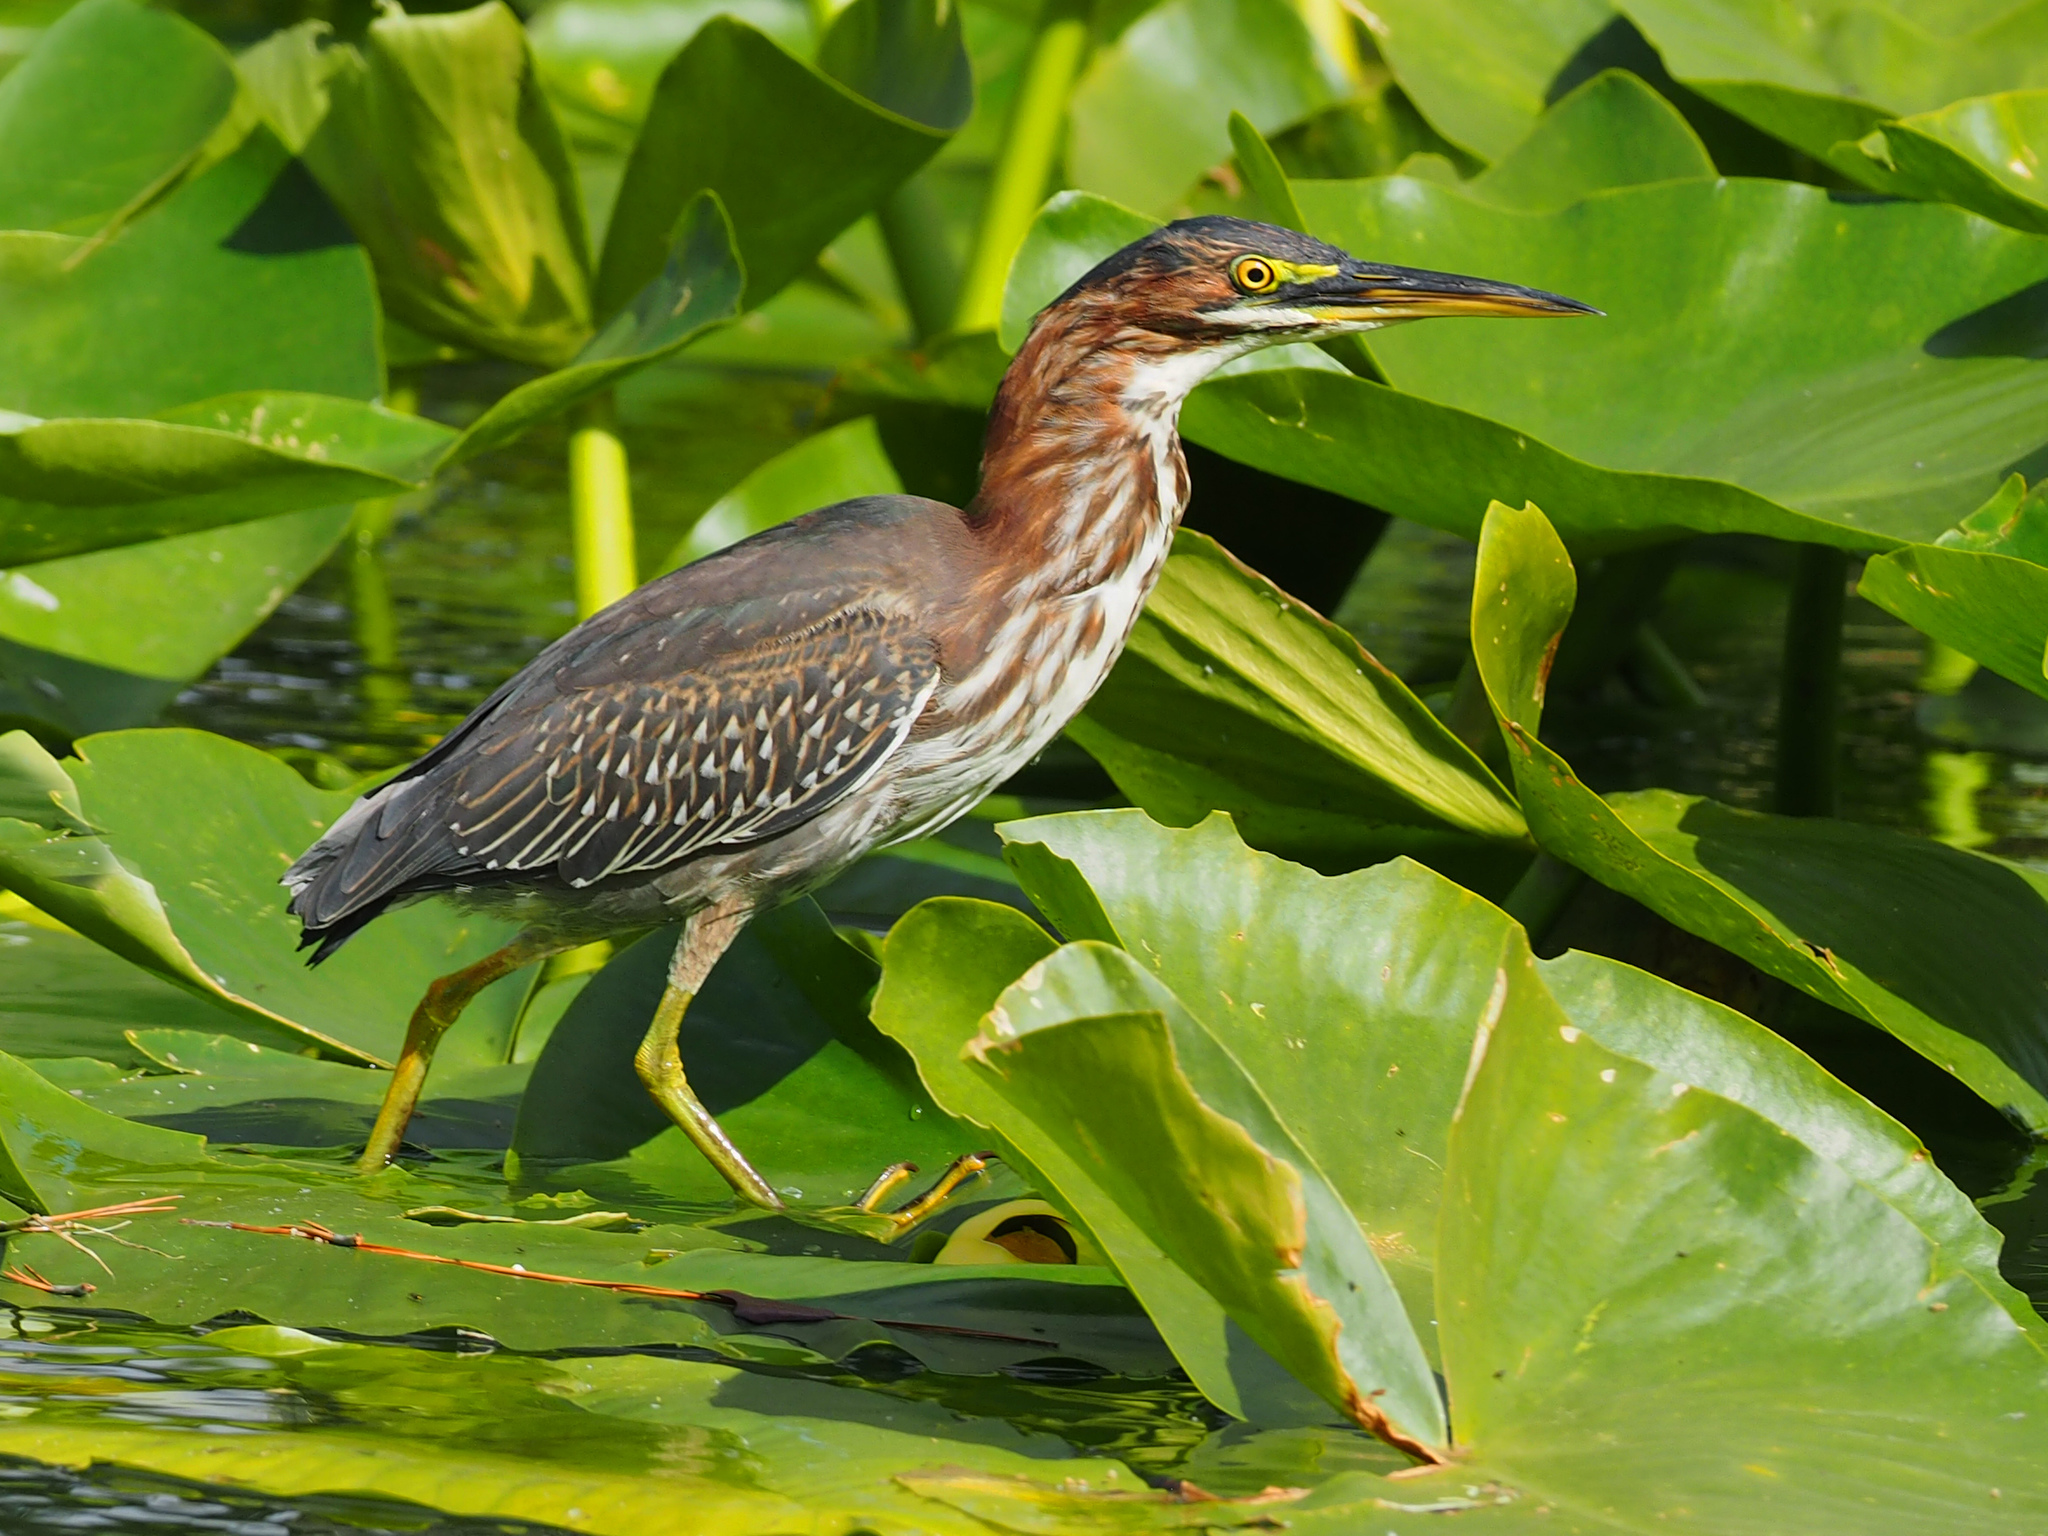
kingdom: Animalia
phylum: Chordata
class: Aves
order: Pelecaniformes
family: Ardeidae
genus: Butorides
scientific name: Butorides virescens
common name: Green heron
